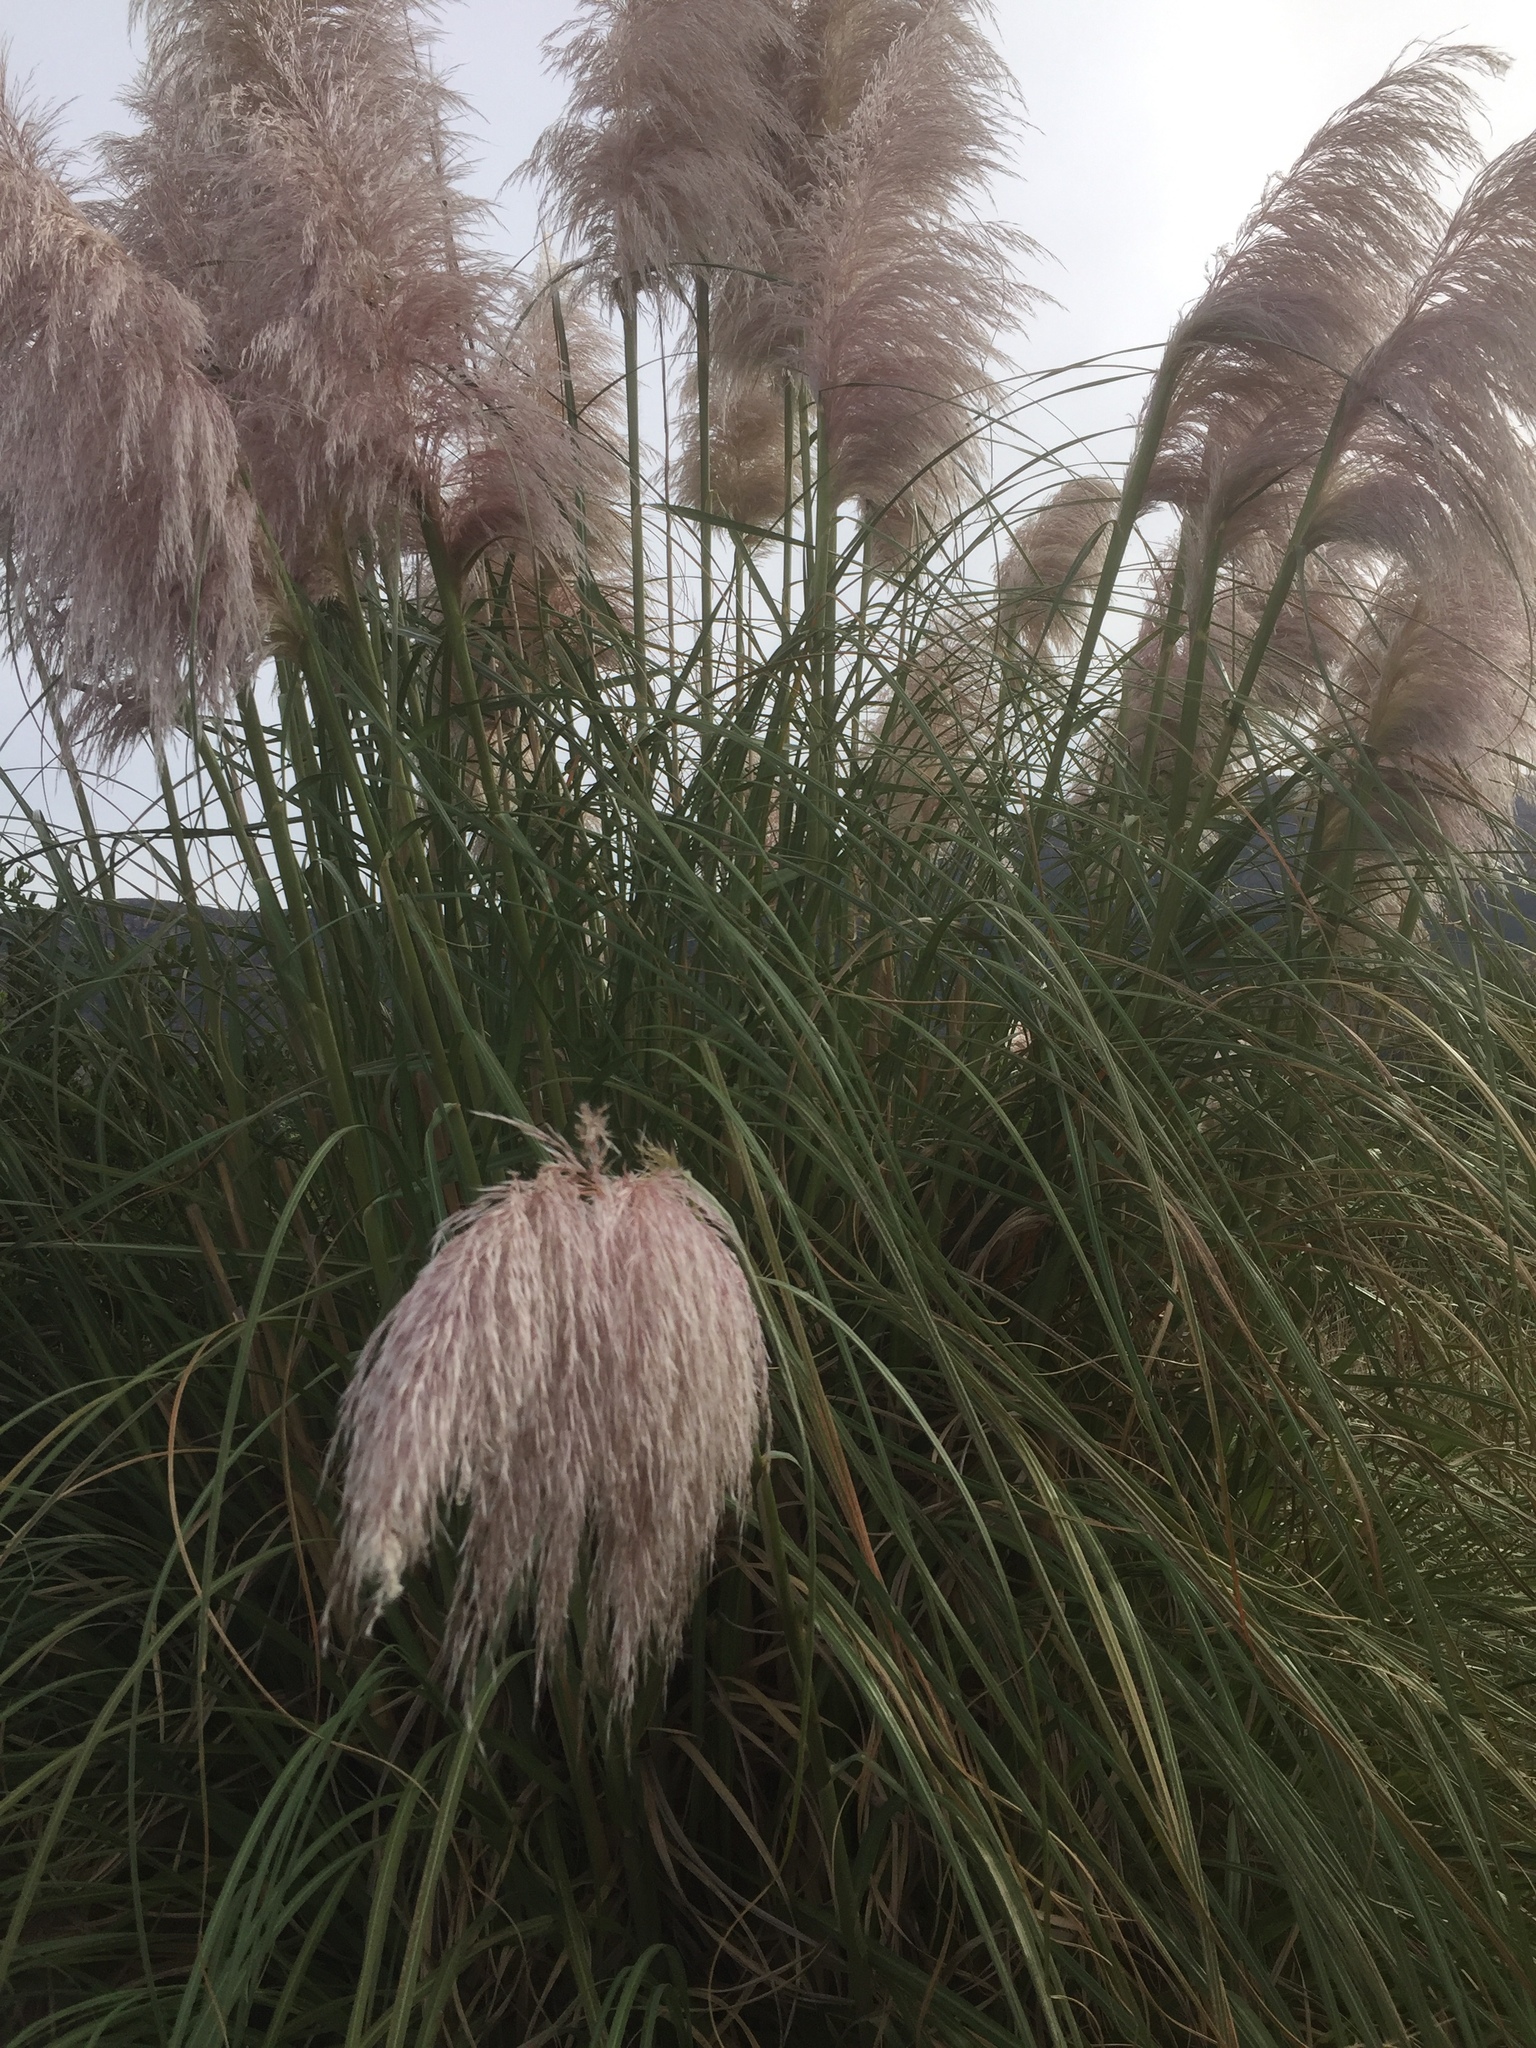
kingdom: Plantae
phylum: Tracheophyta
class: Liliopsida
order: Poales
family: Poaceae
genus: Cortaderia
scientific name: Cortaderia selloana
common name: Uruguayan pampas grass
